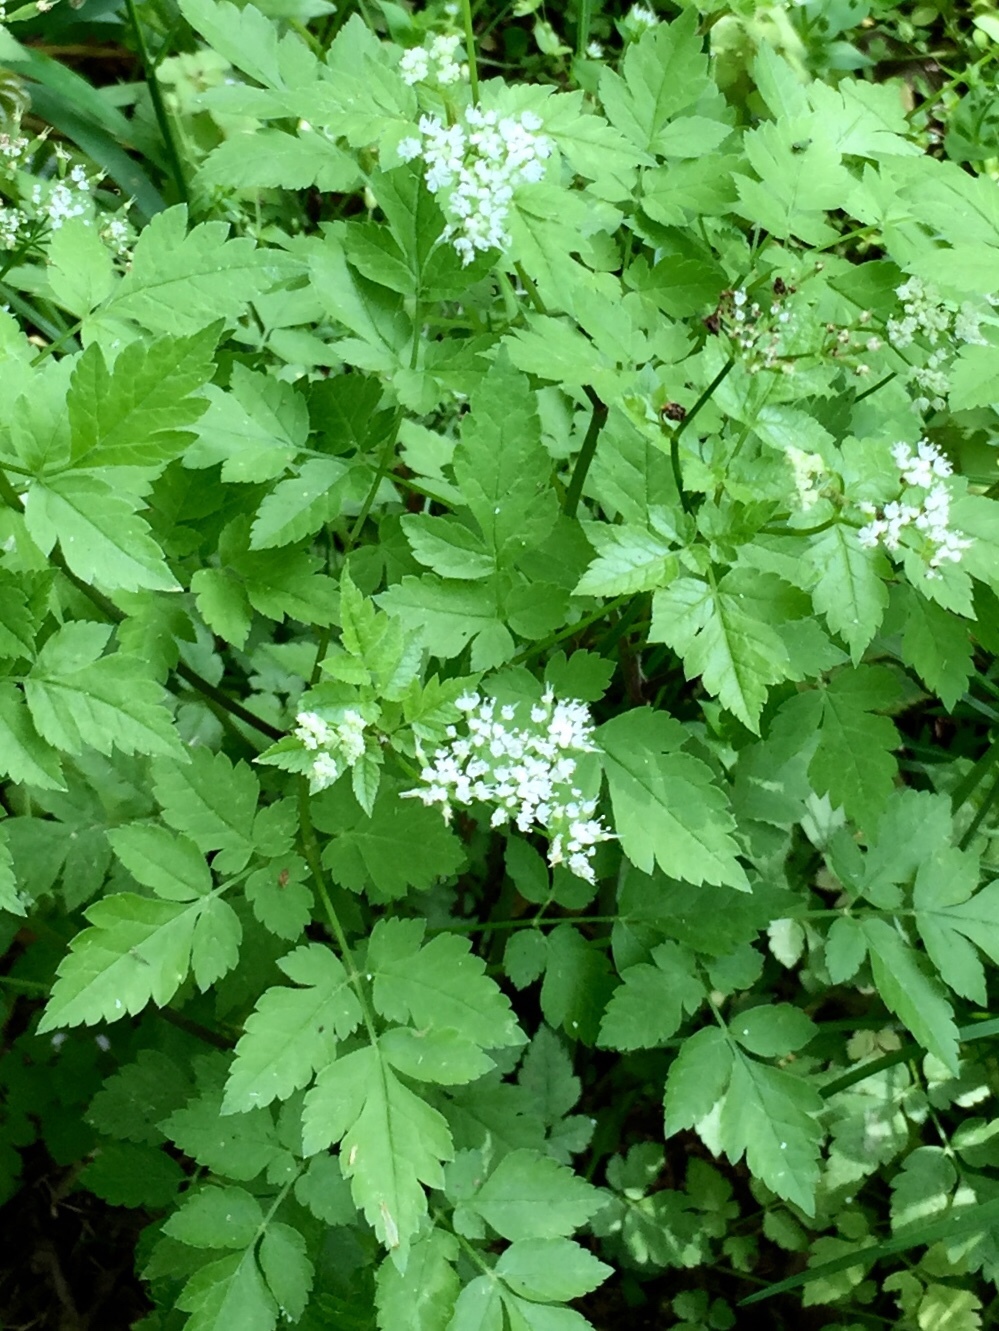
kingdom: Plantae
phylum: Tracheophyta
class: Magnoliopsida
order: Apiales
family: Apiaceae
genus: Osmorhiza
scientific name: Osmorhiza longistylis
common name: Smooth sweet cicely
